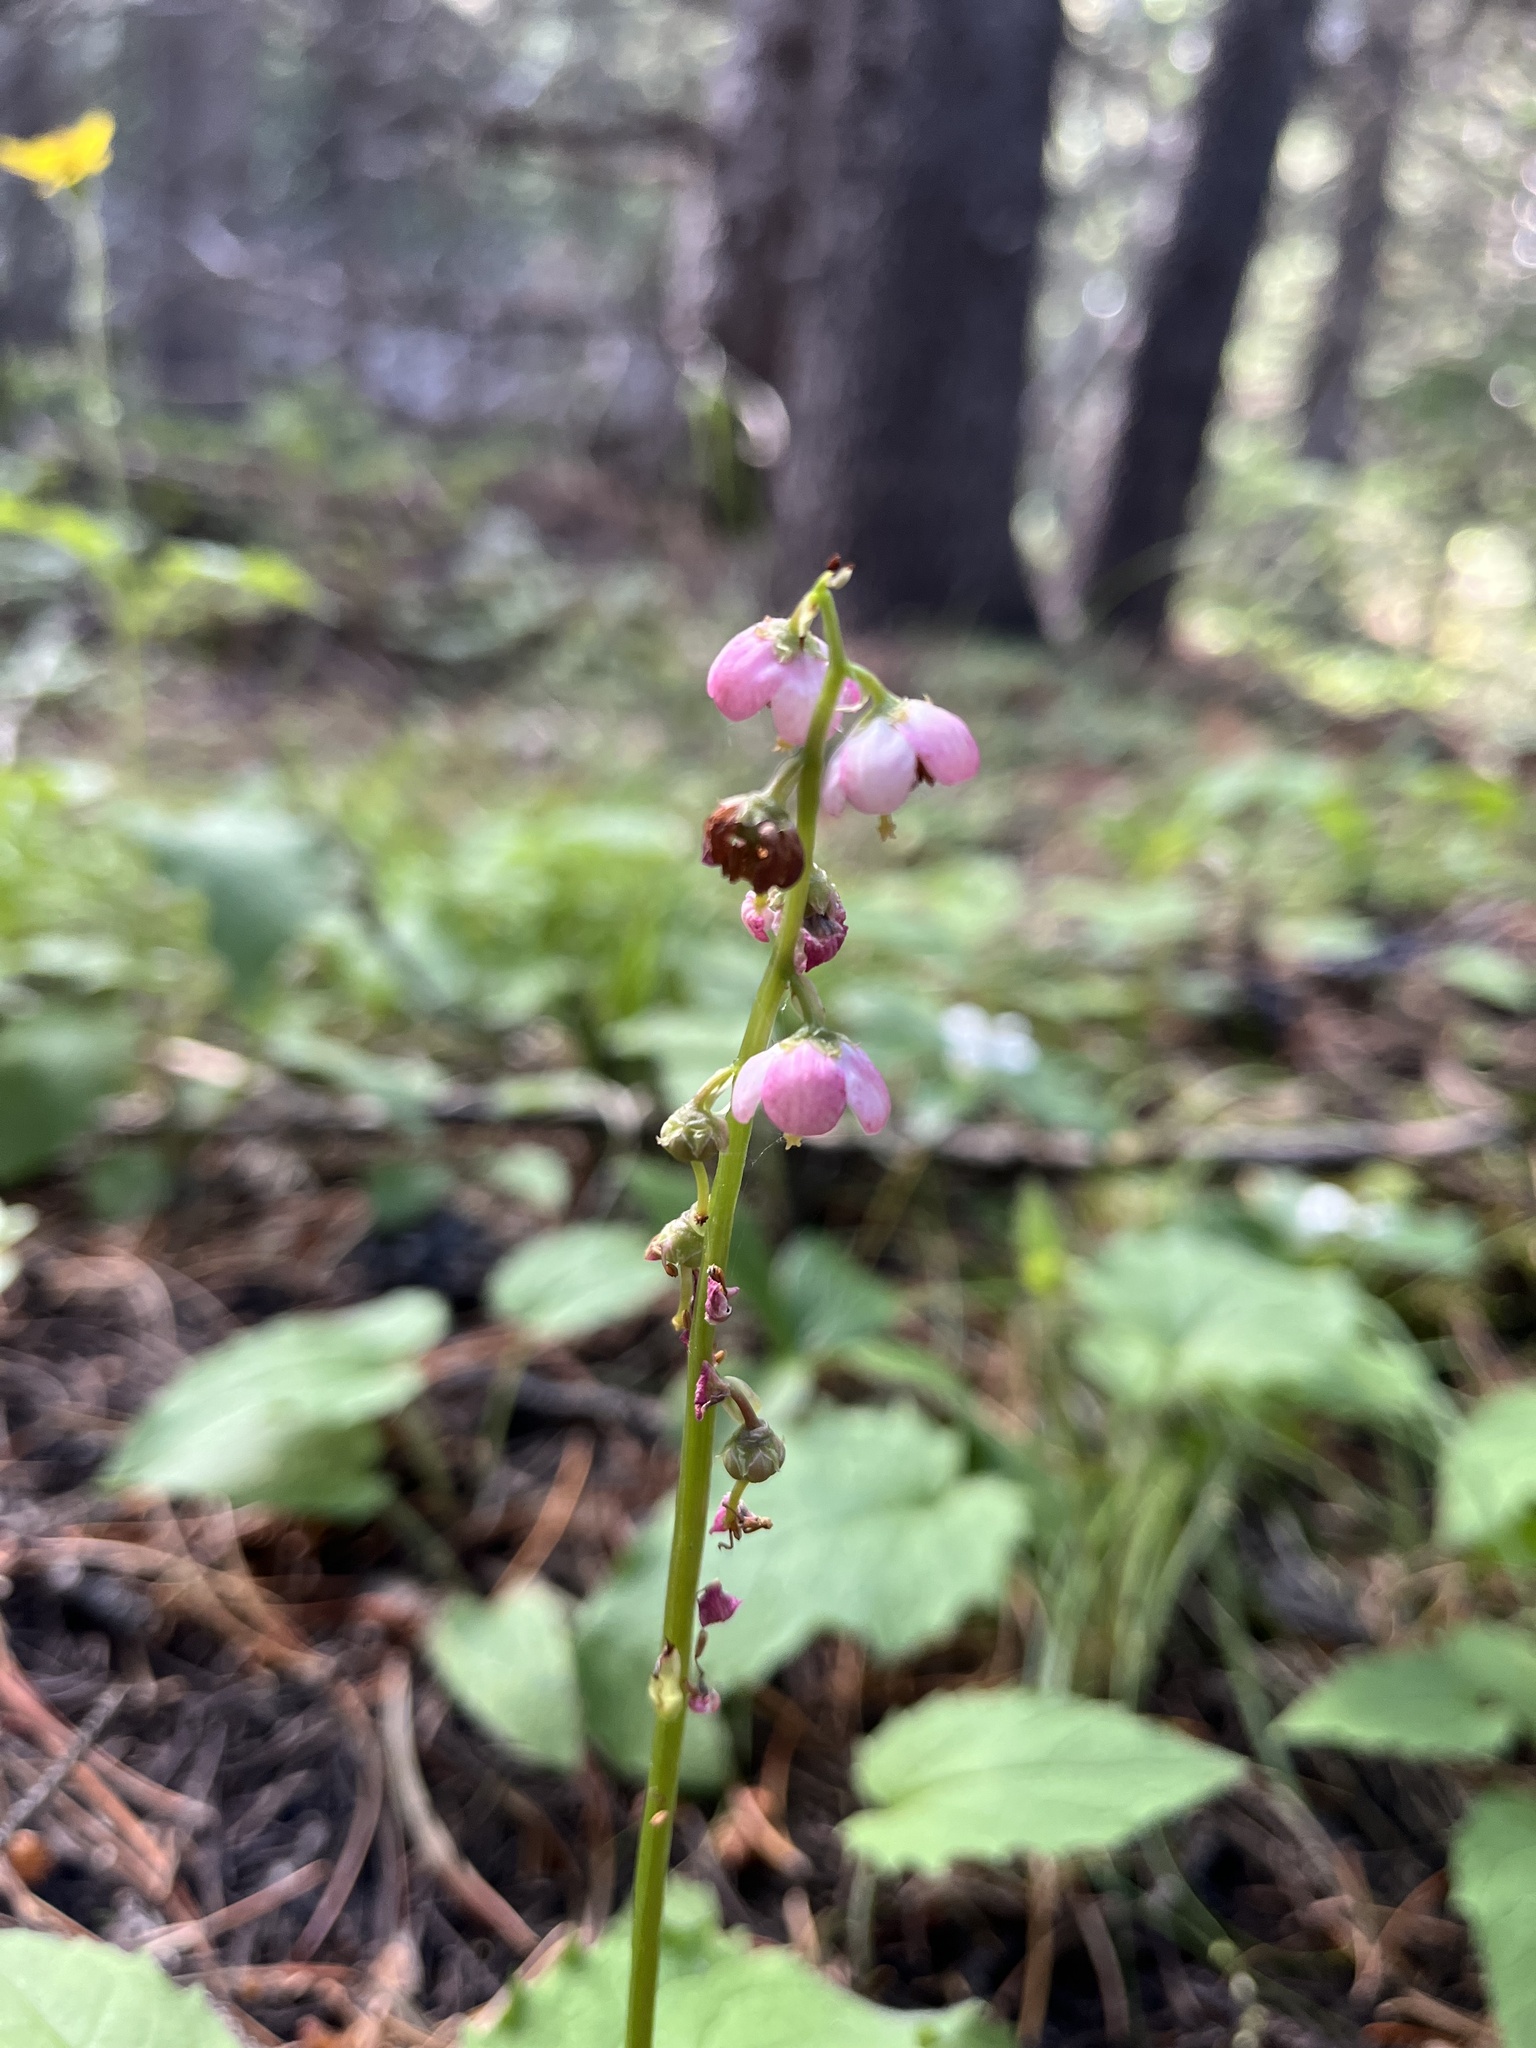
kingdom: Plantae
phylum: Tracheophyta
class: Magnoliopsida
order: Ericales
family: Ericaceae
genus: Pyrola
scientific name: Pyrola asarifolia
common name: Bog wintergreen
